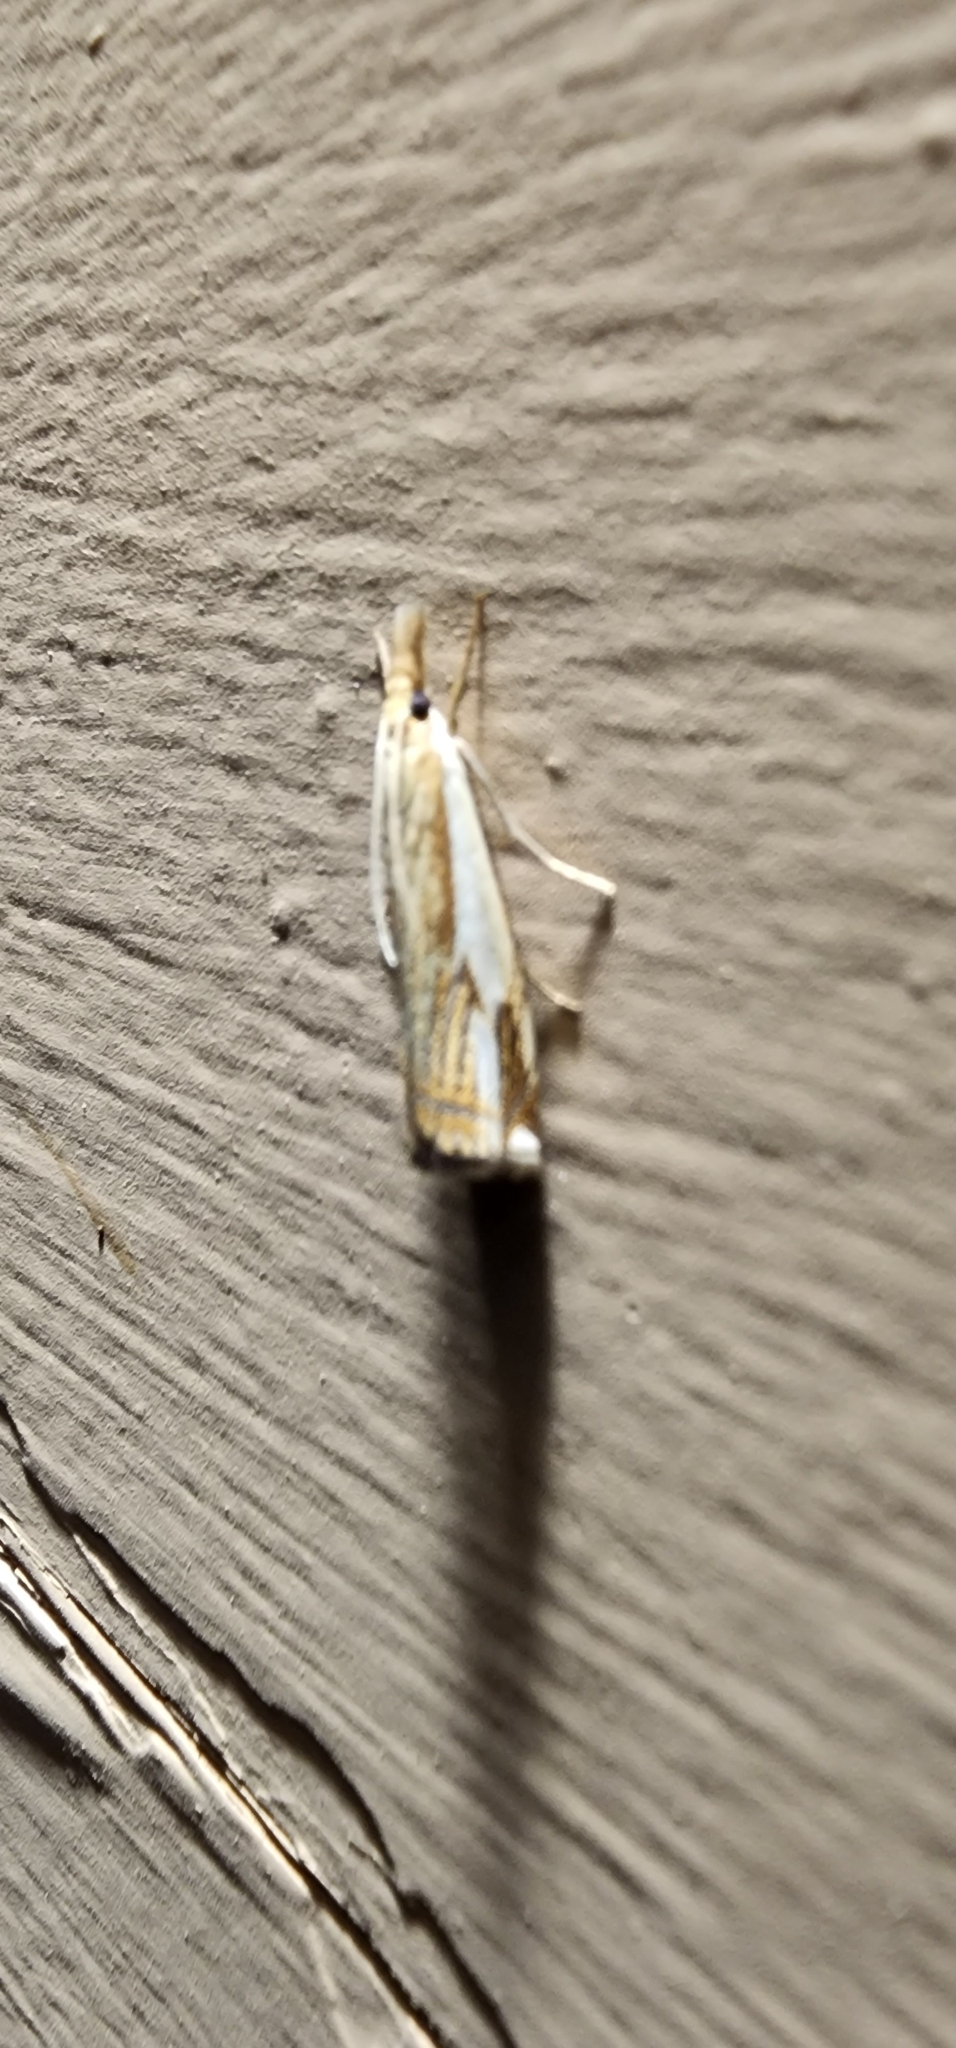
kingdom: Animalia
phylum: Arthropoda
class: Insecta
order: Lepidoptera
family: Crambidae
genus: Crambus
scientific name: Crambus agitatellus
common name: Double-banded grass-veneer
